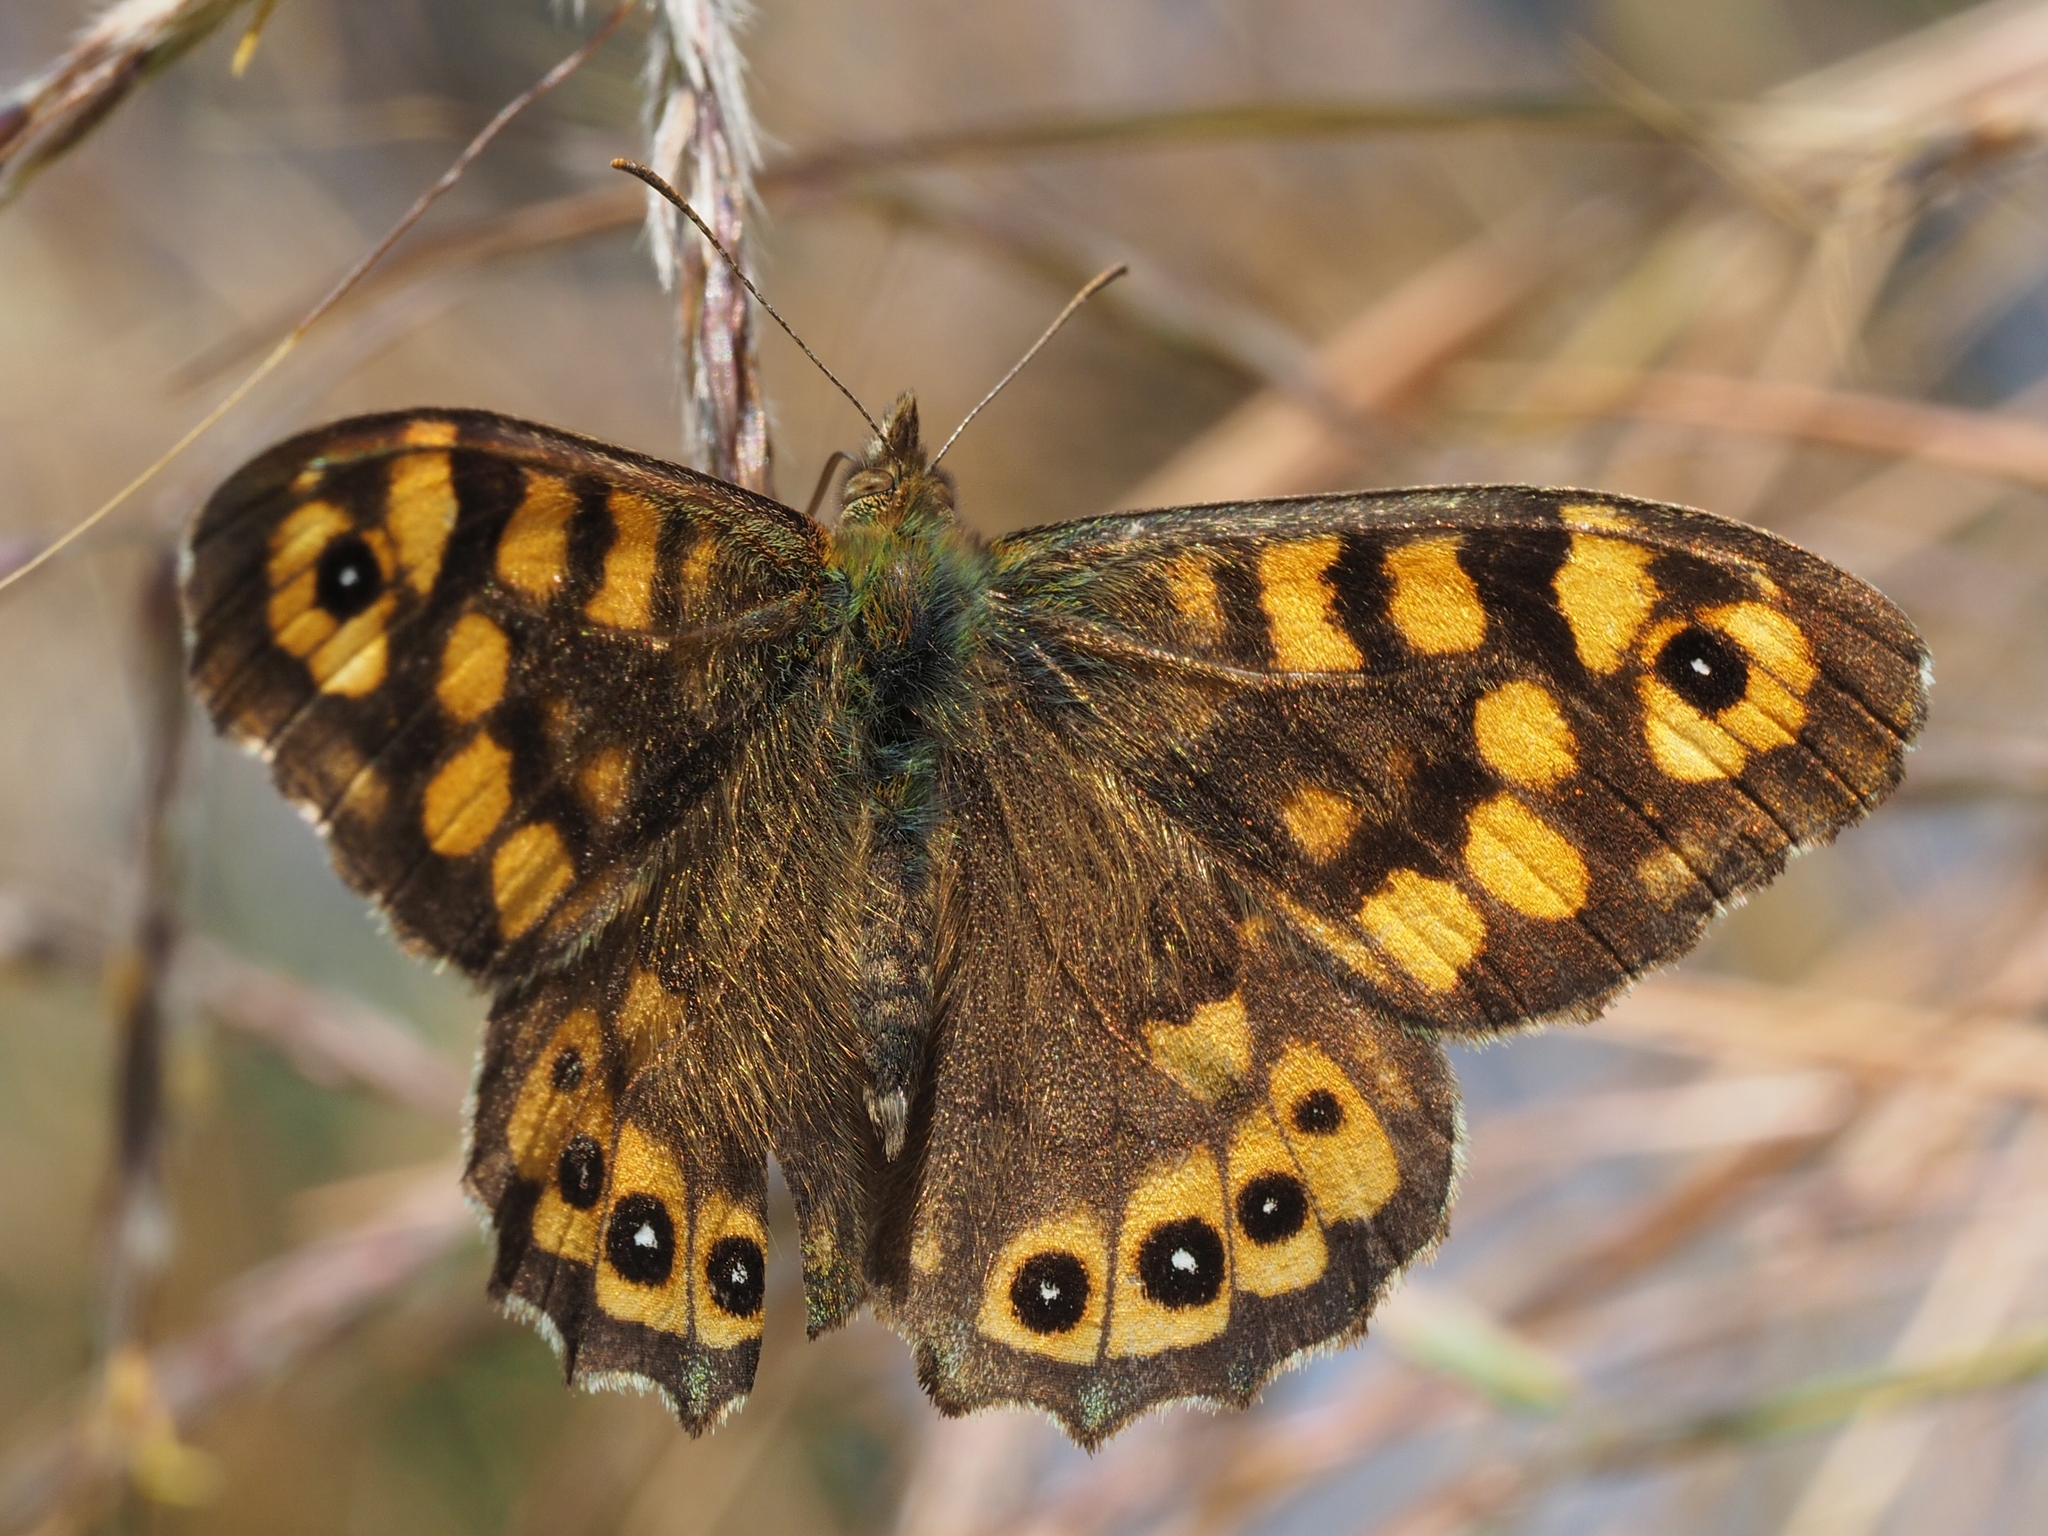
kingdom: Animalia
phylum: Arthropoda
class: Insecta
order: Lepidoptera
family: Nymphalidae
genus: Pararge
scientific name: Pararge aegeria
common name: Speckled wood
